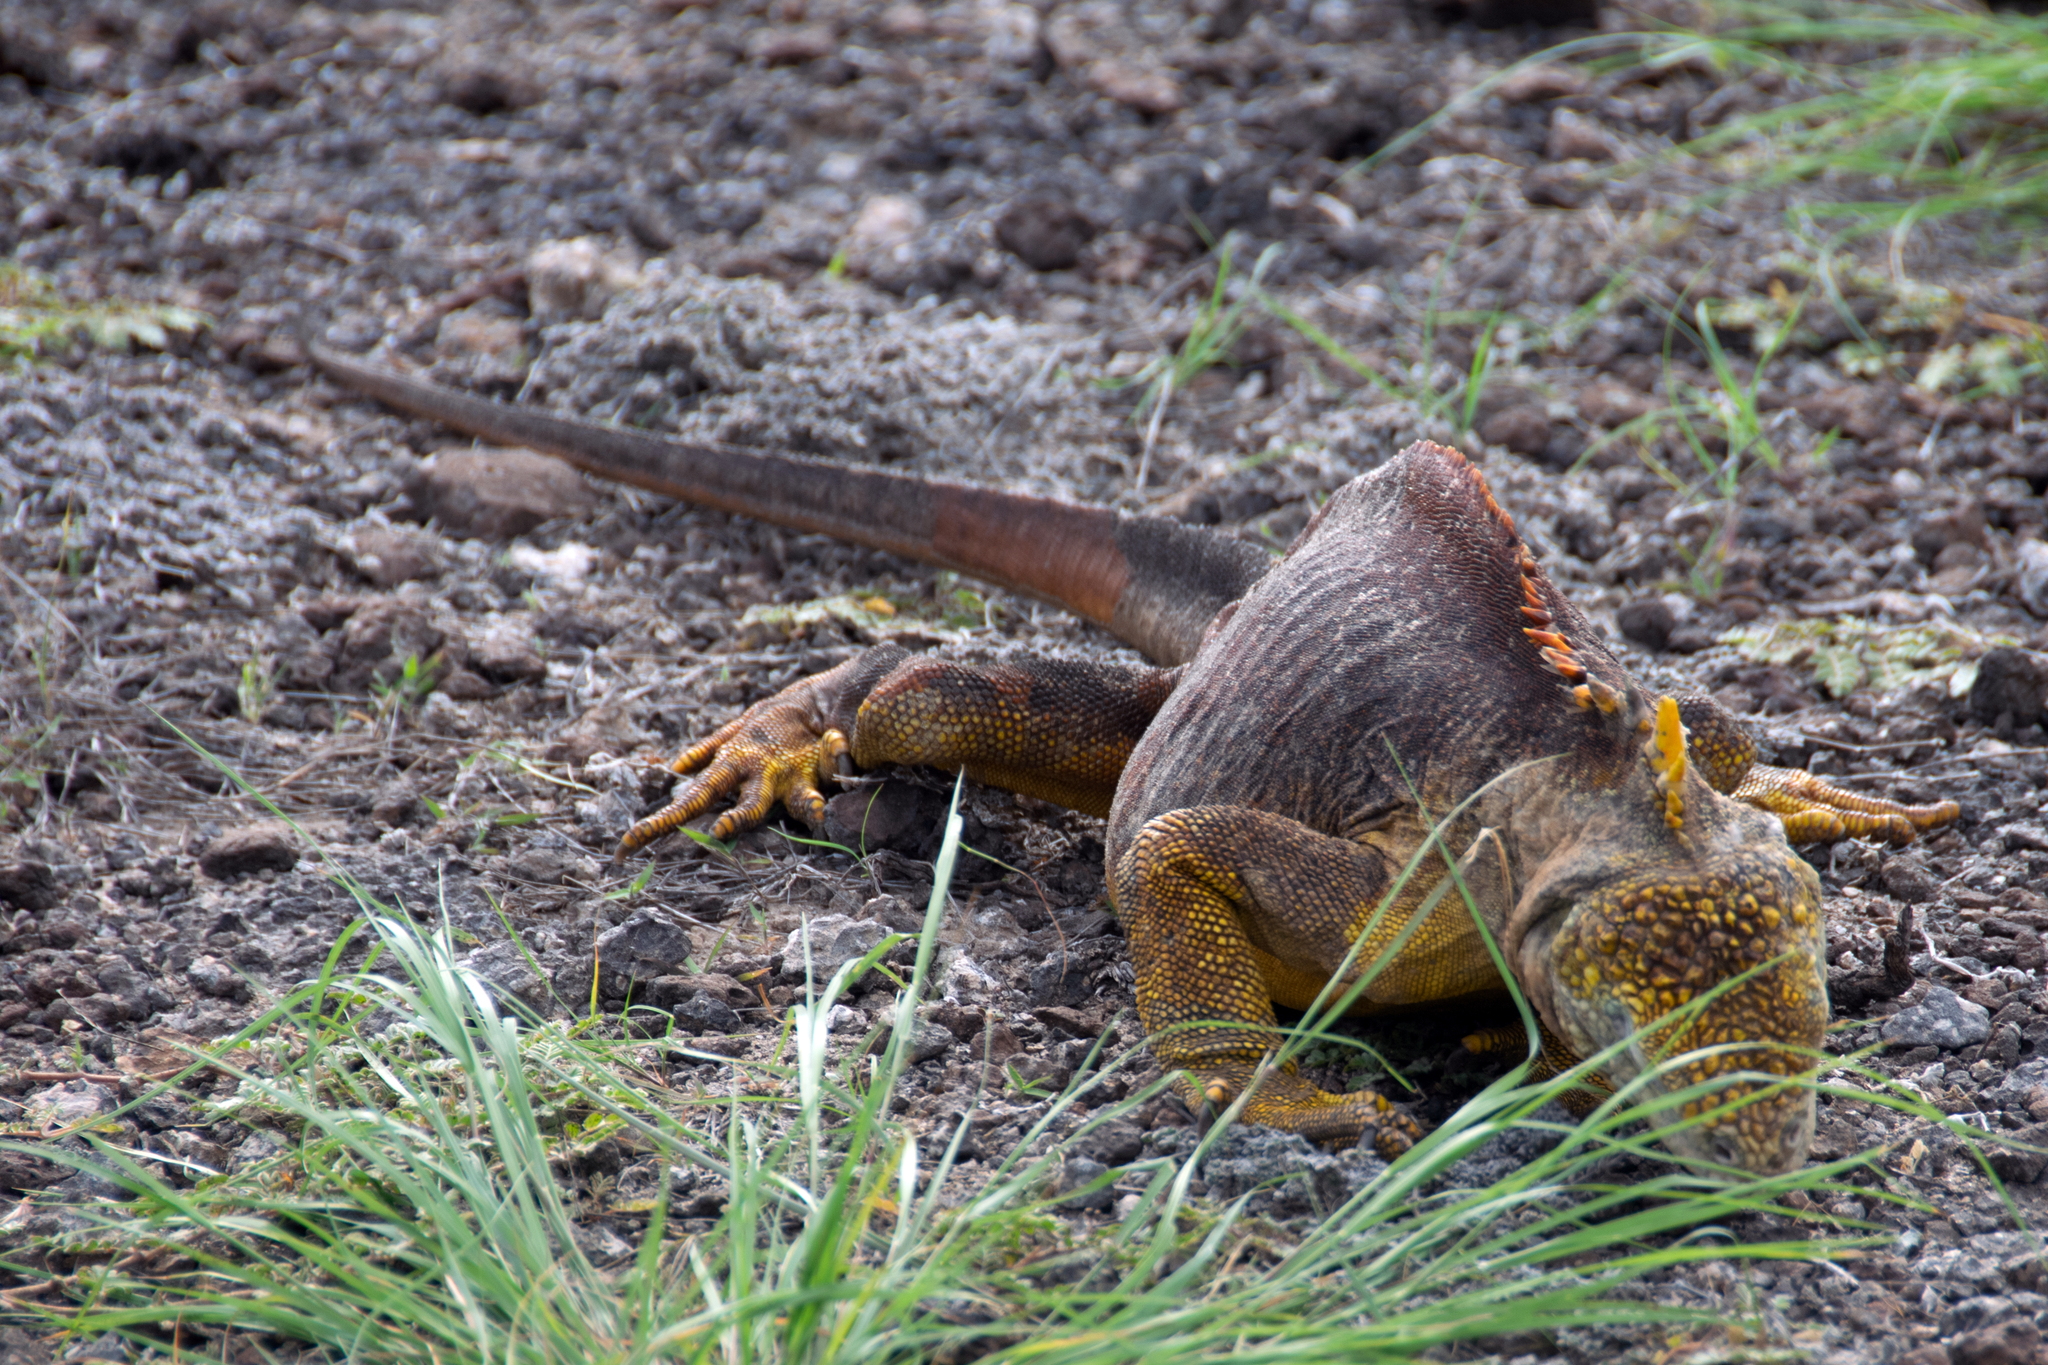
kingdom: Animalia
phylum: Chordata
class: Squamata
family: Iguanidae
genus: Conolophus
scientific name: Conolophus subcristatus
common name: Galapagos land iguana
